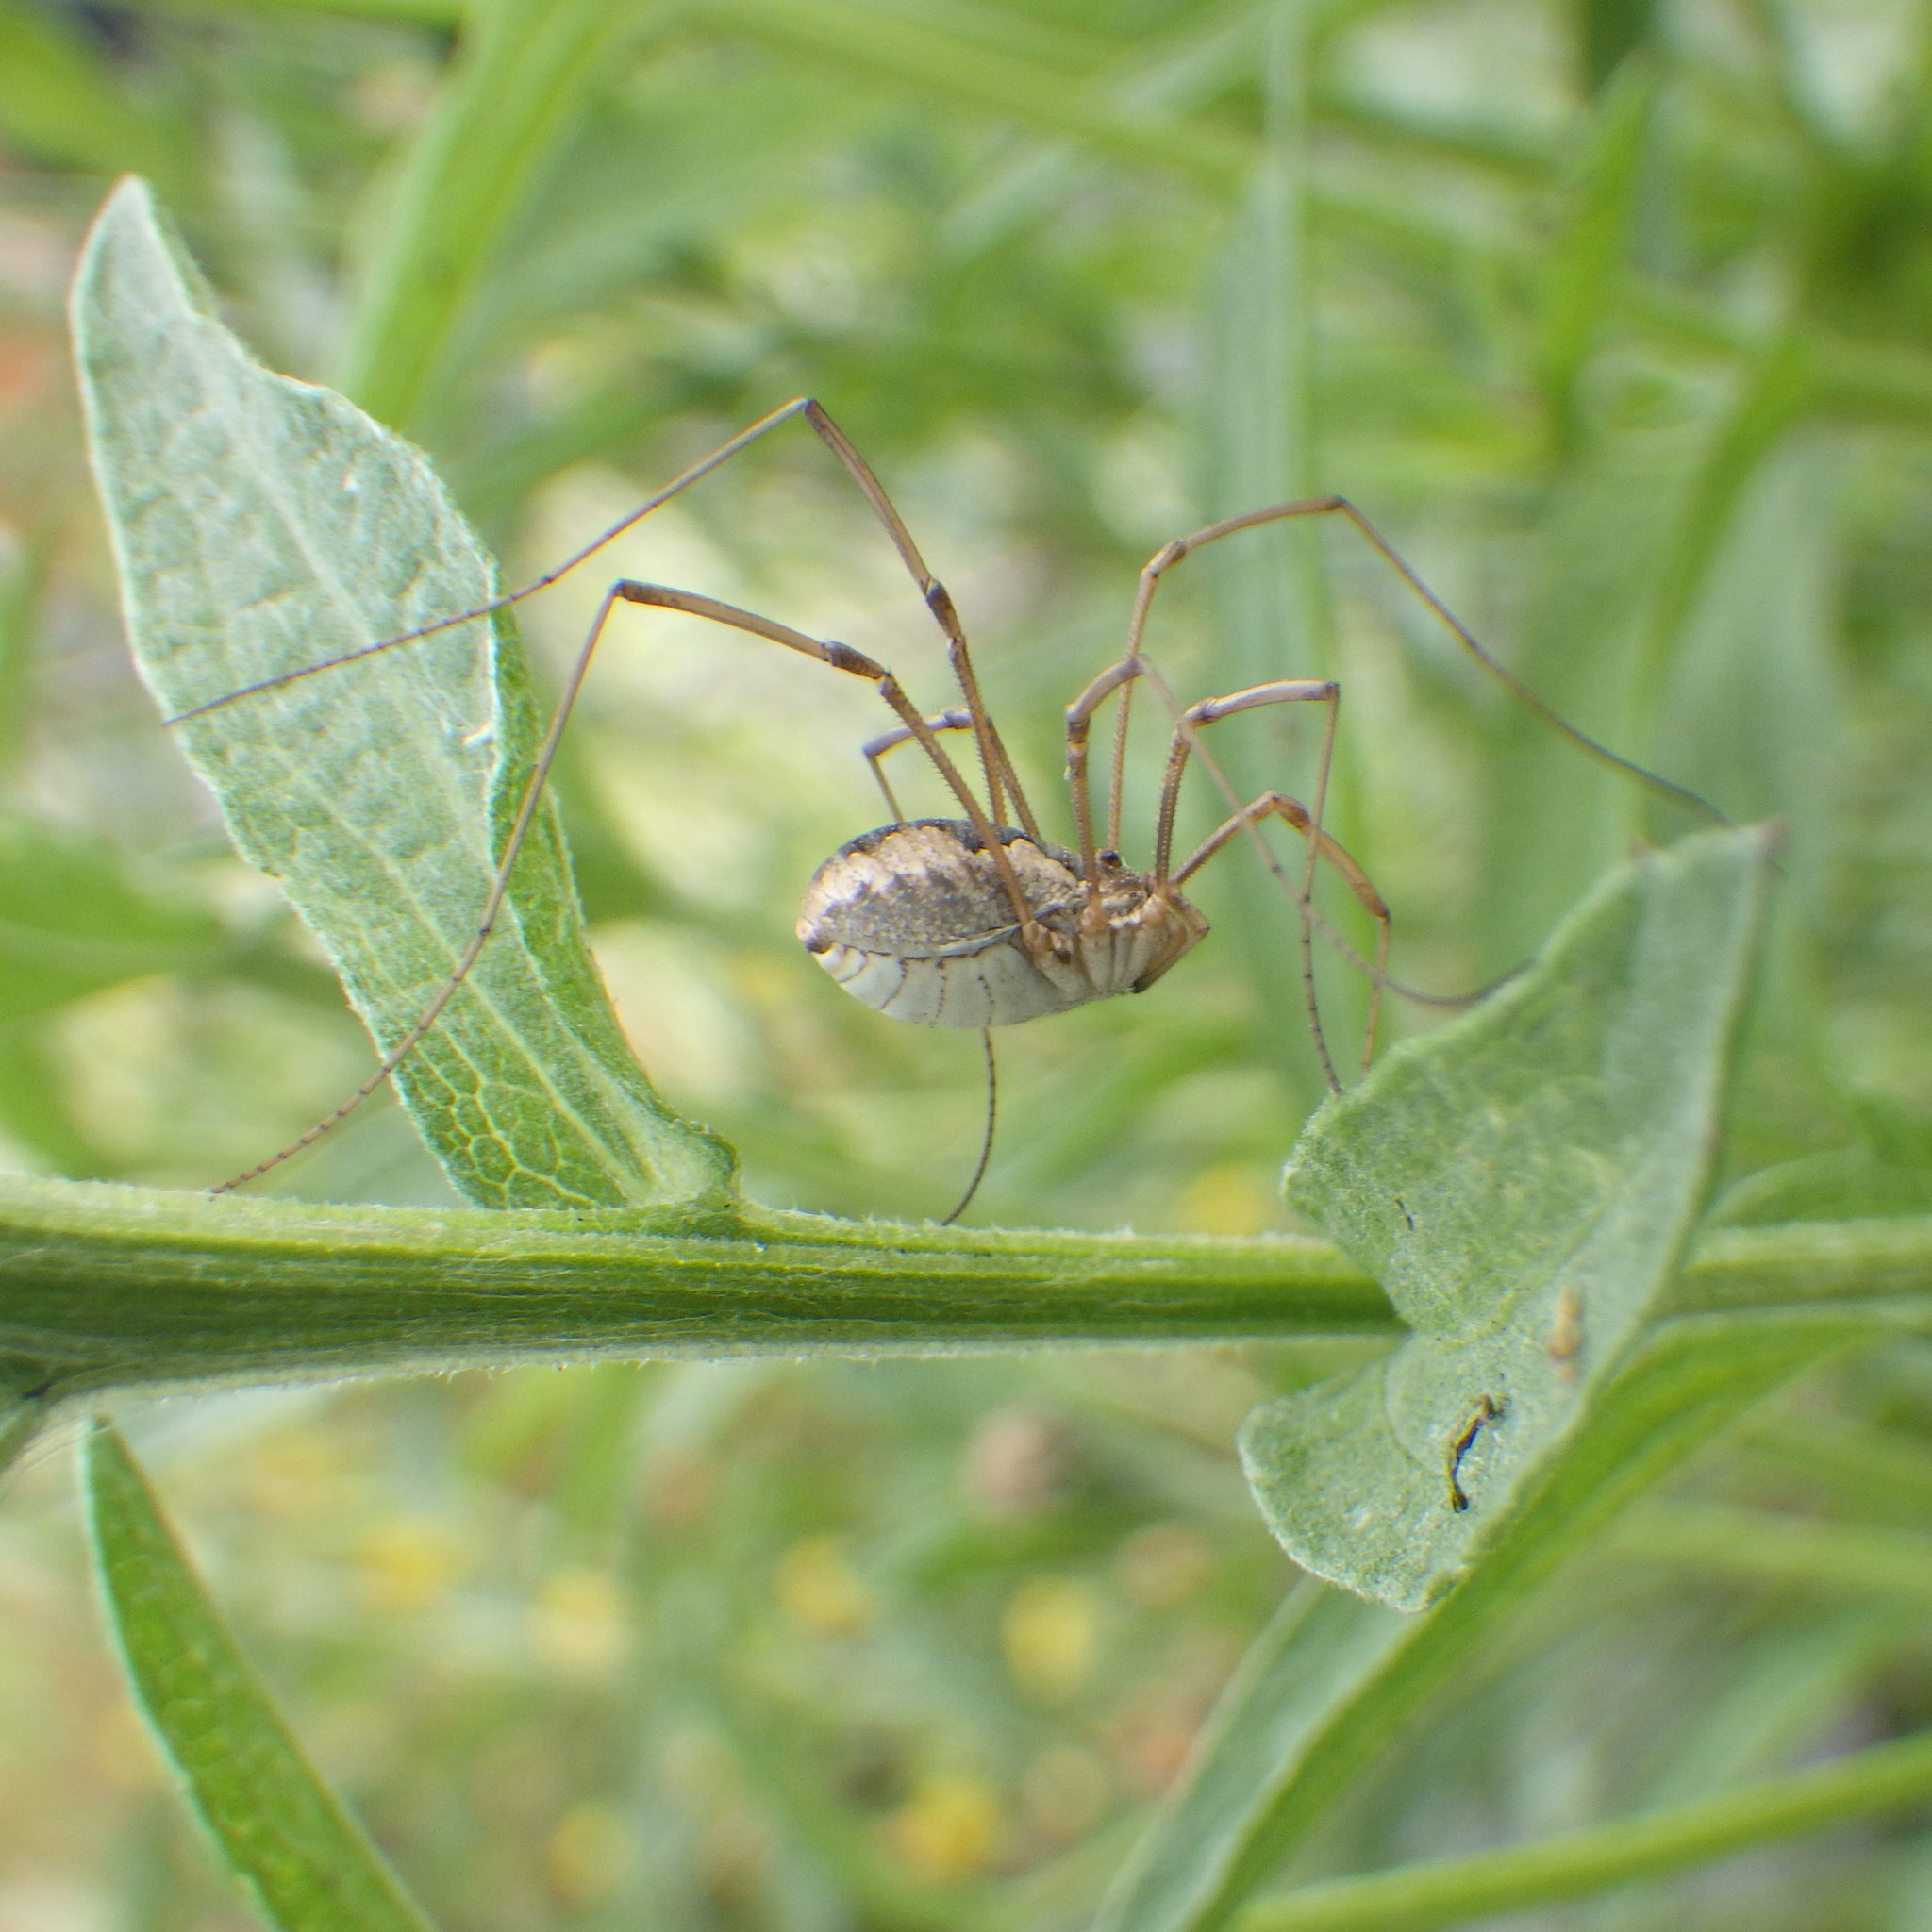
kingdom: Animalia
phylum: Arthropoda
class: Arachnida
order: Opiliones
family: Phalangiidae
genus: Phalangium
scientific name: Phalangium opilio
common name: Daddy longleg
